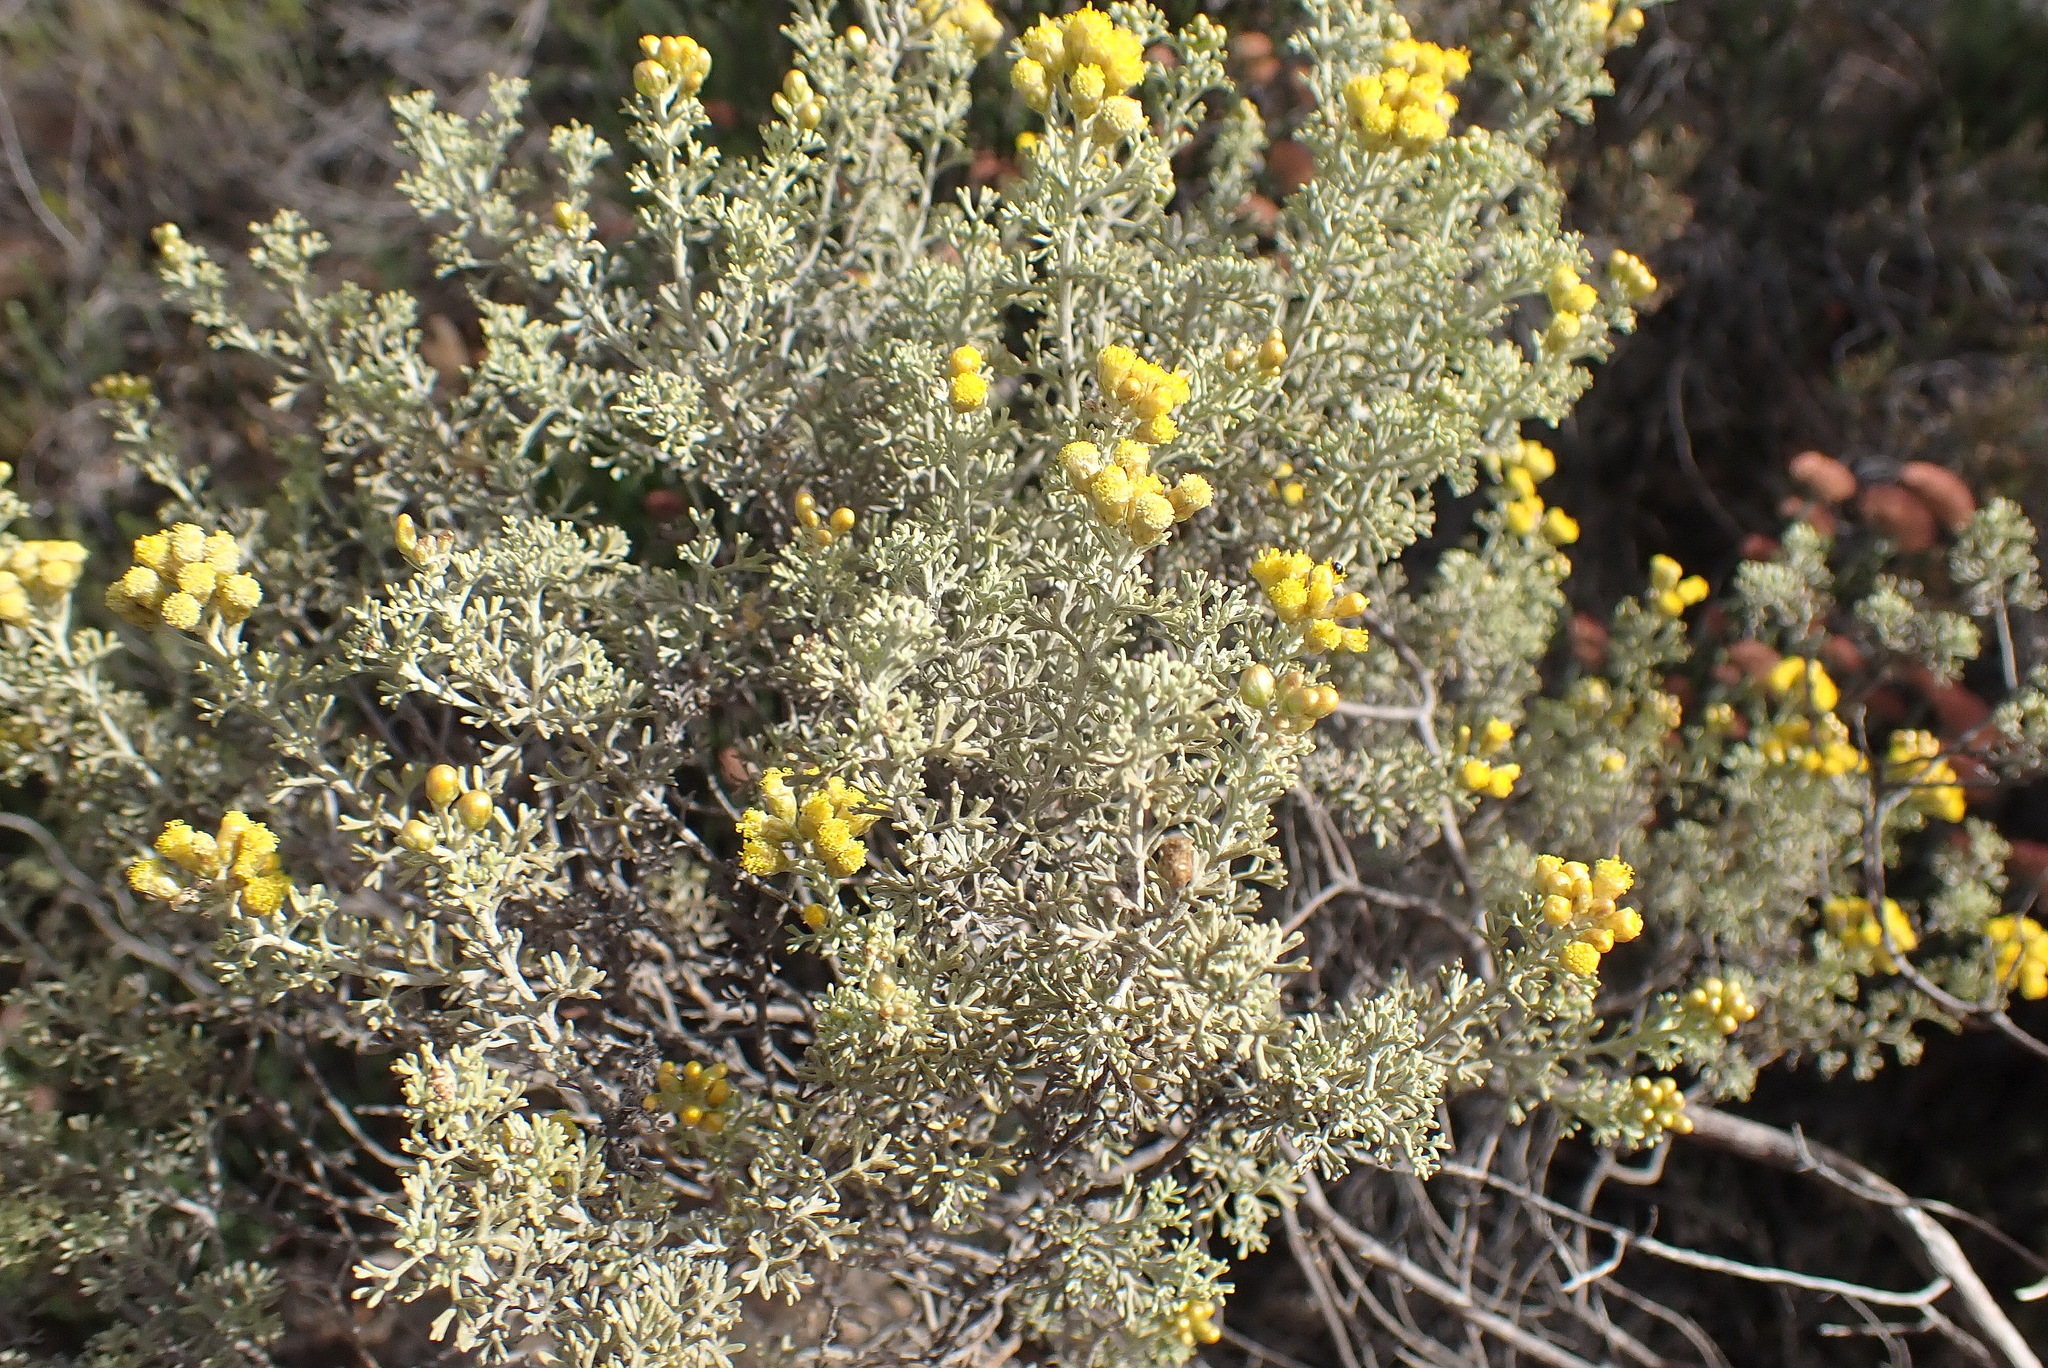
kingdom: Plantae
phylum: Tracheophyta
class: Magnoliopsida
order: Asterales
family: Asteraceae
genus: Pentzia
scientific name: Pentzia elegans
